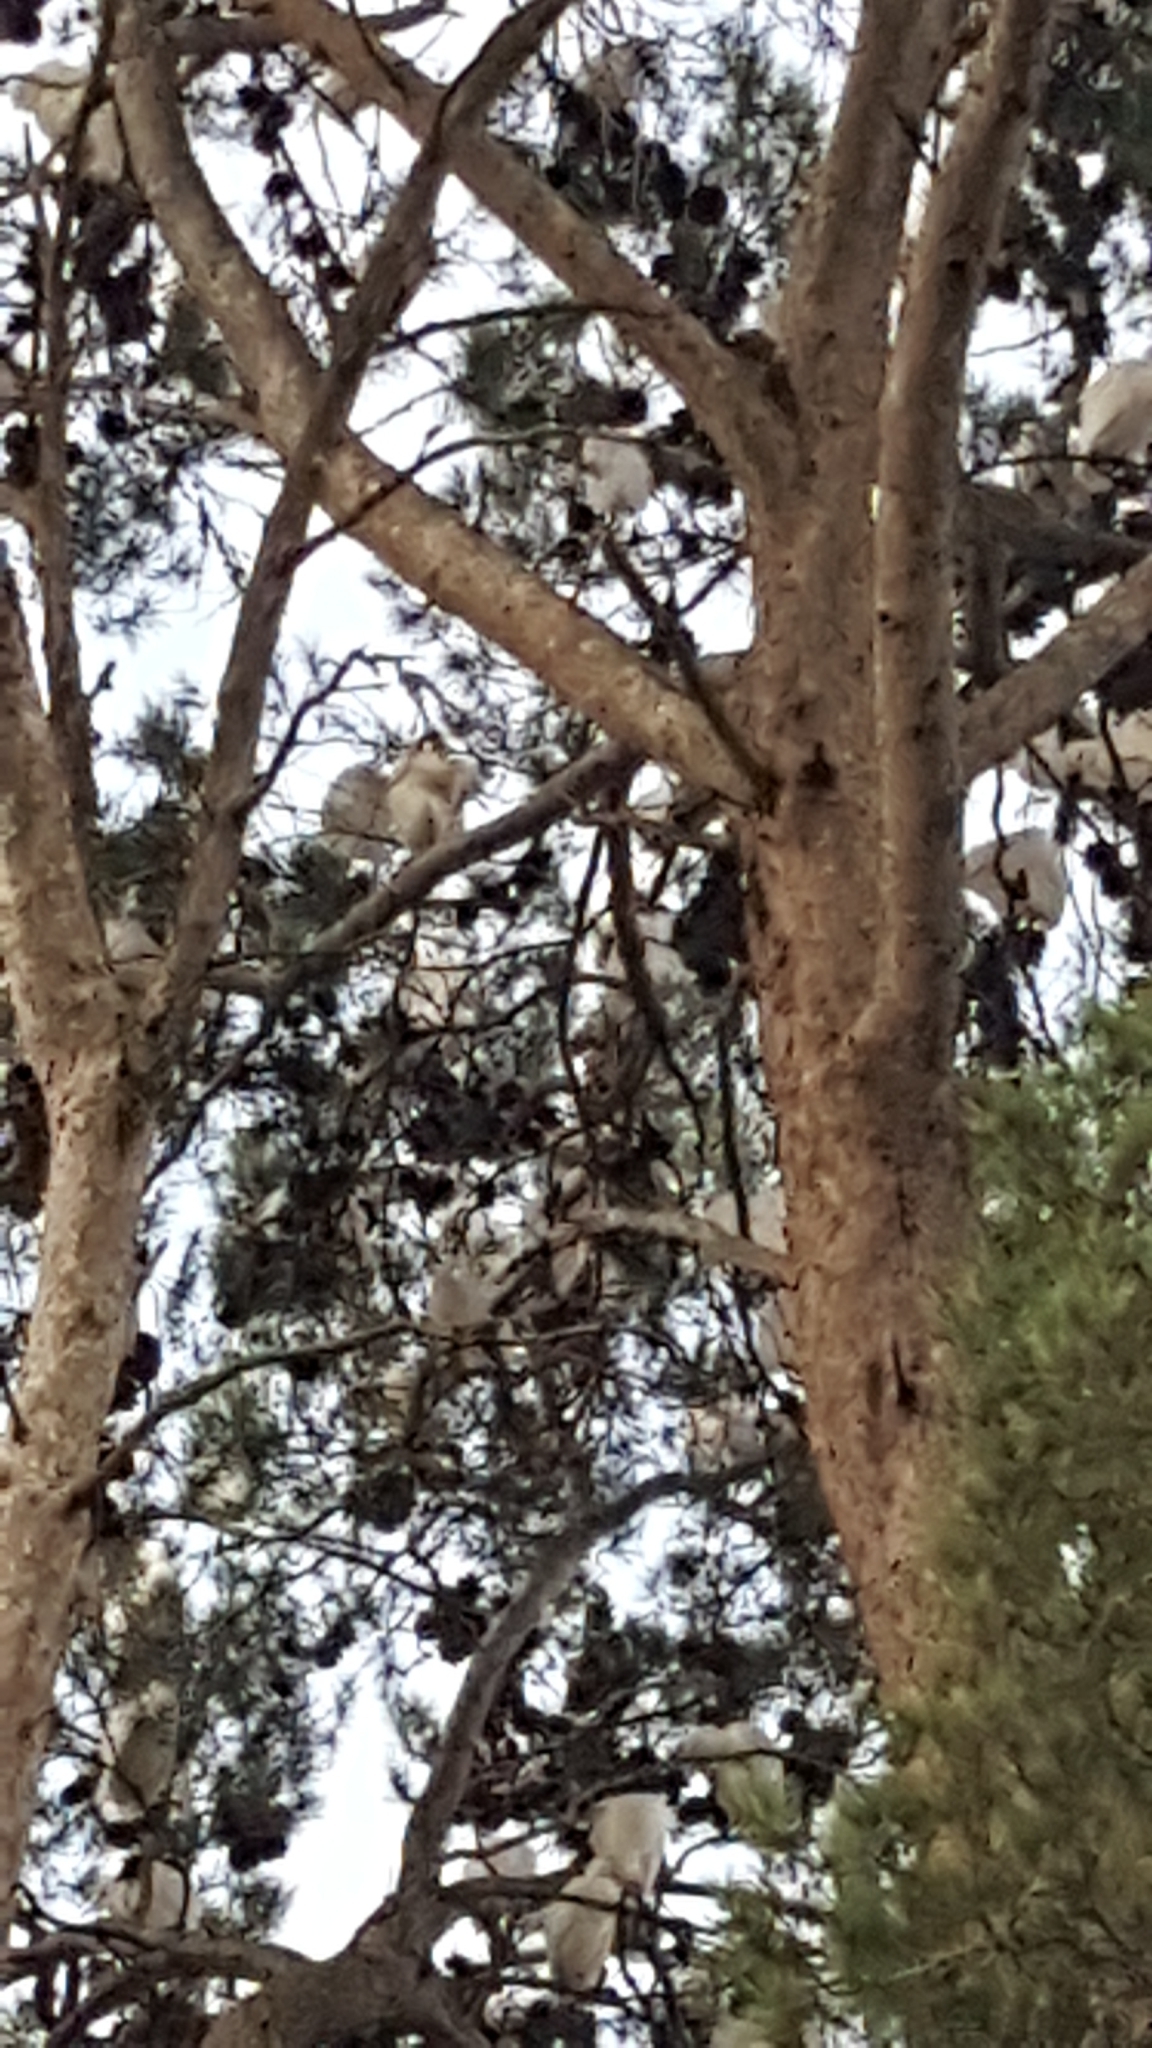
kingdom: Animalia
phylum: Chordata
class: Aves
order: Pelecaniformes
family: Ardeidae
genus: Bubulcus
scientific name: Bubulcus ibis
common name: Cattle egret
